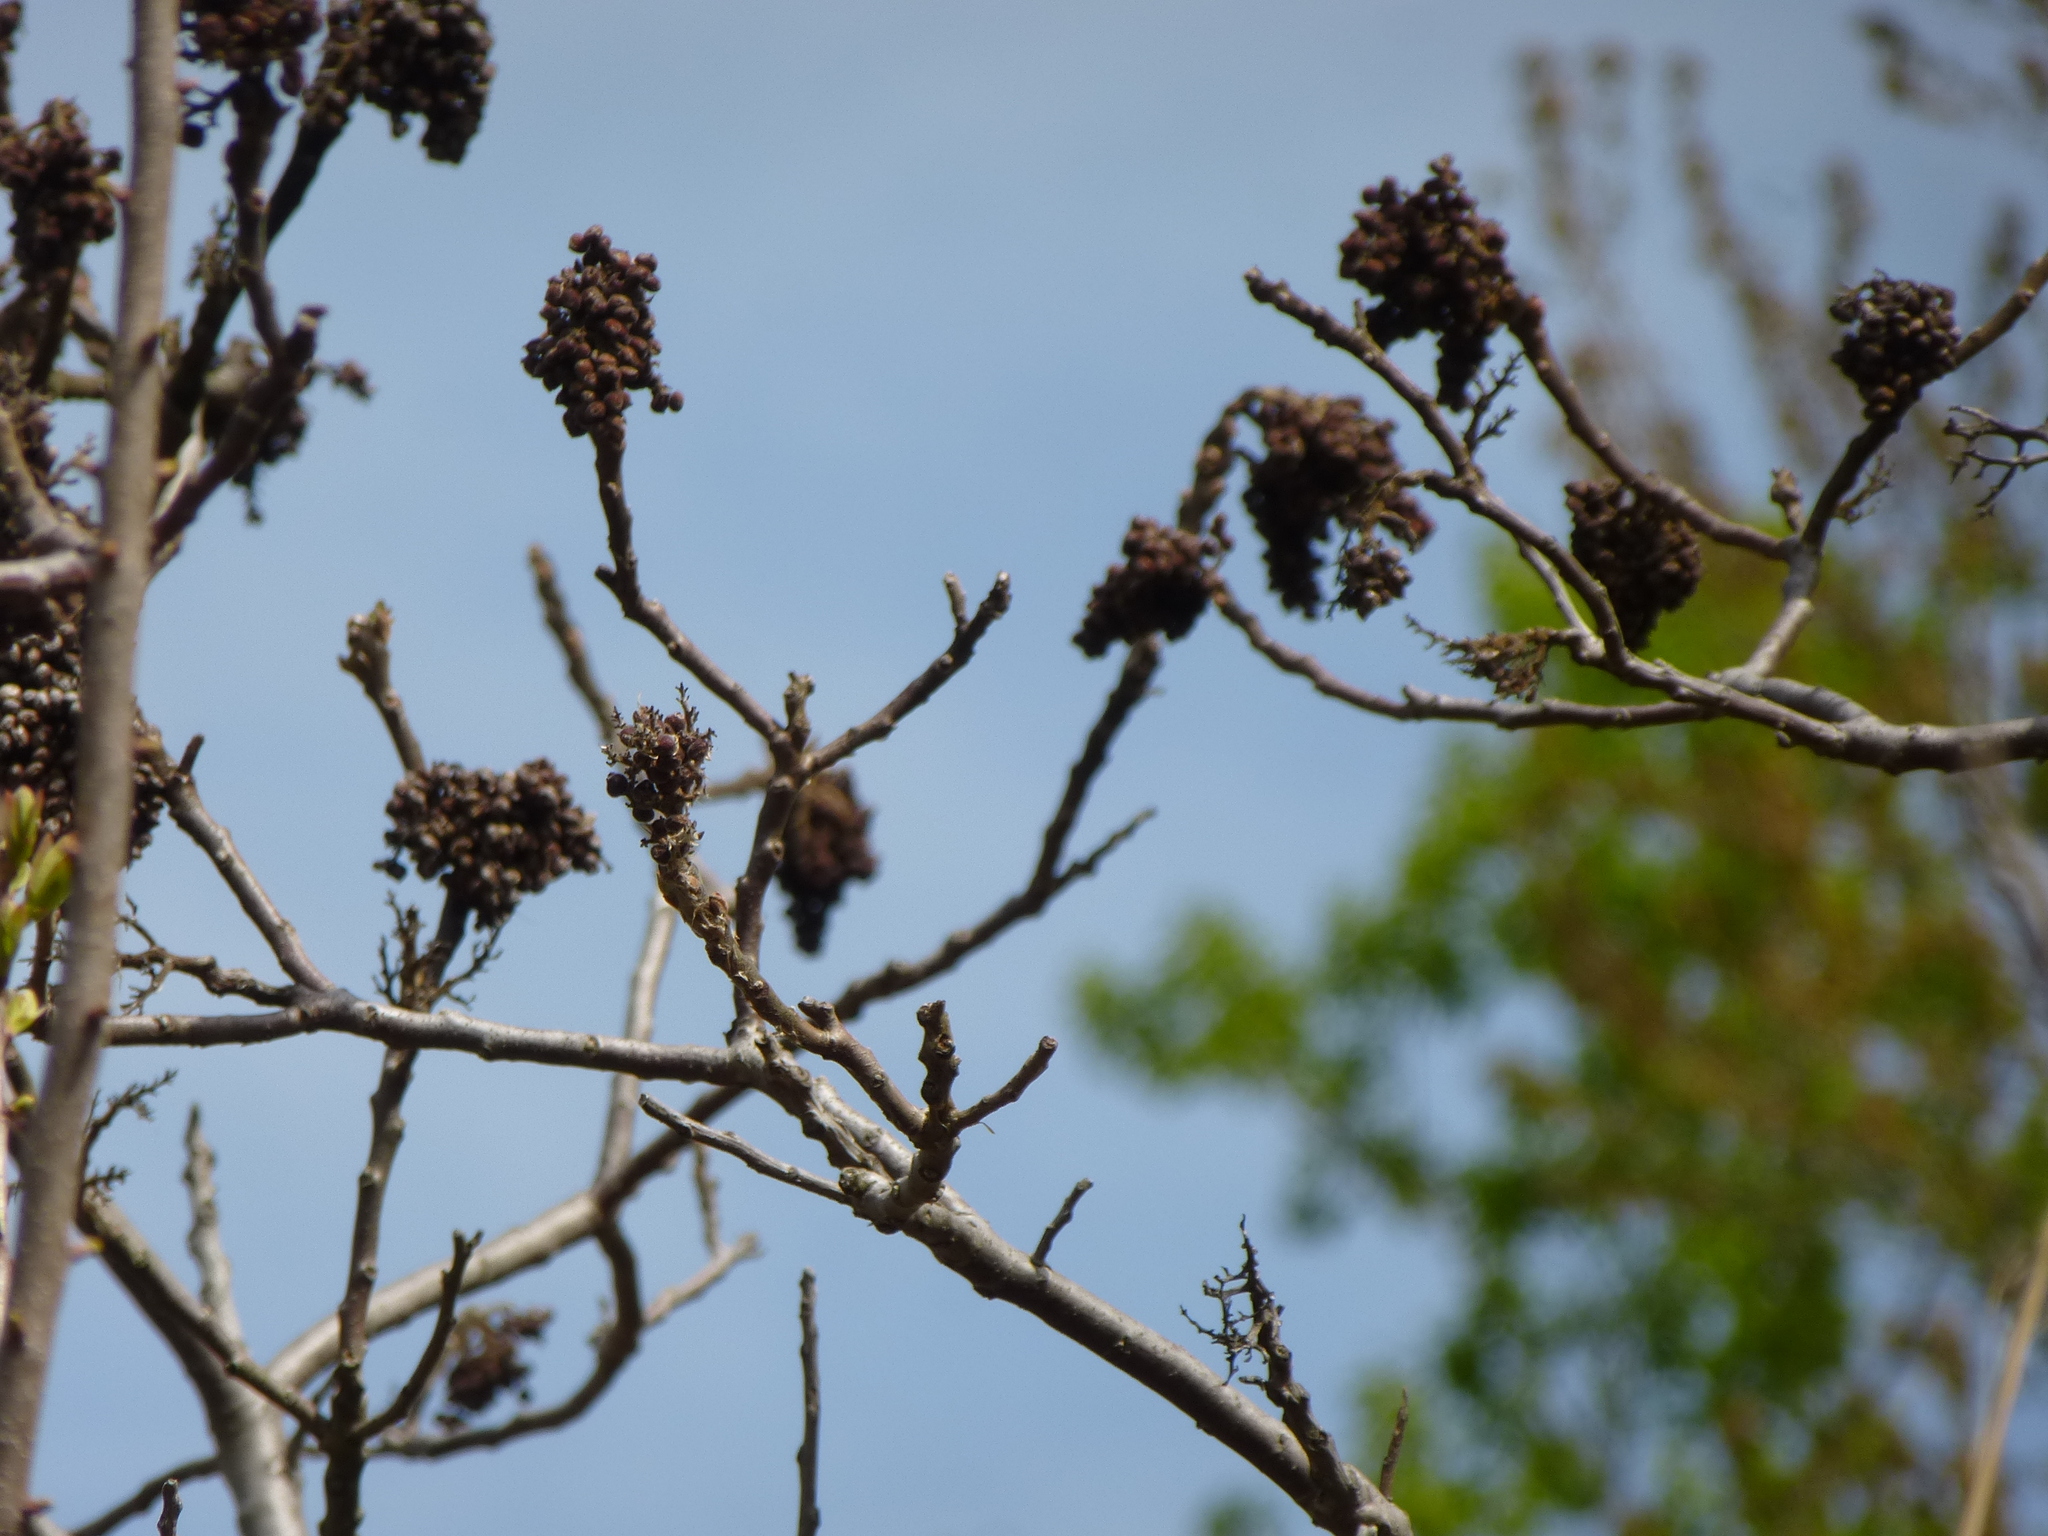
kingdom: Plantae
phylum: Tracheophyta
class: Magnoliopsida
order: Sapindales
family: Anacardiaceae
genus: Rhus
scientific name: Rhus copallina
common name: Shining sumac
